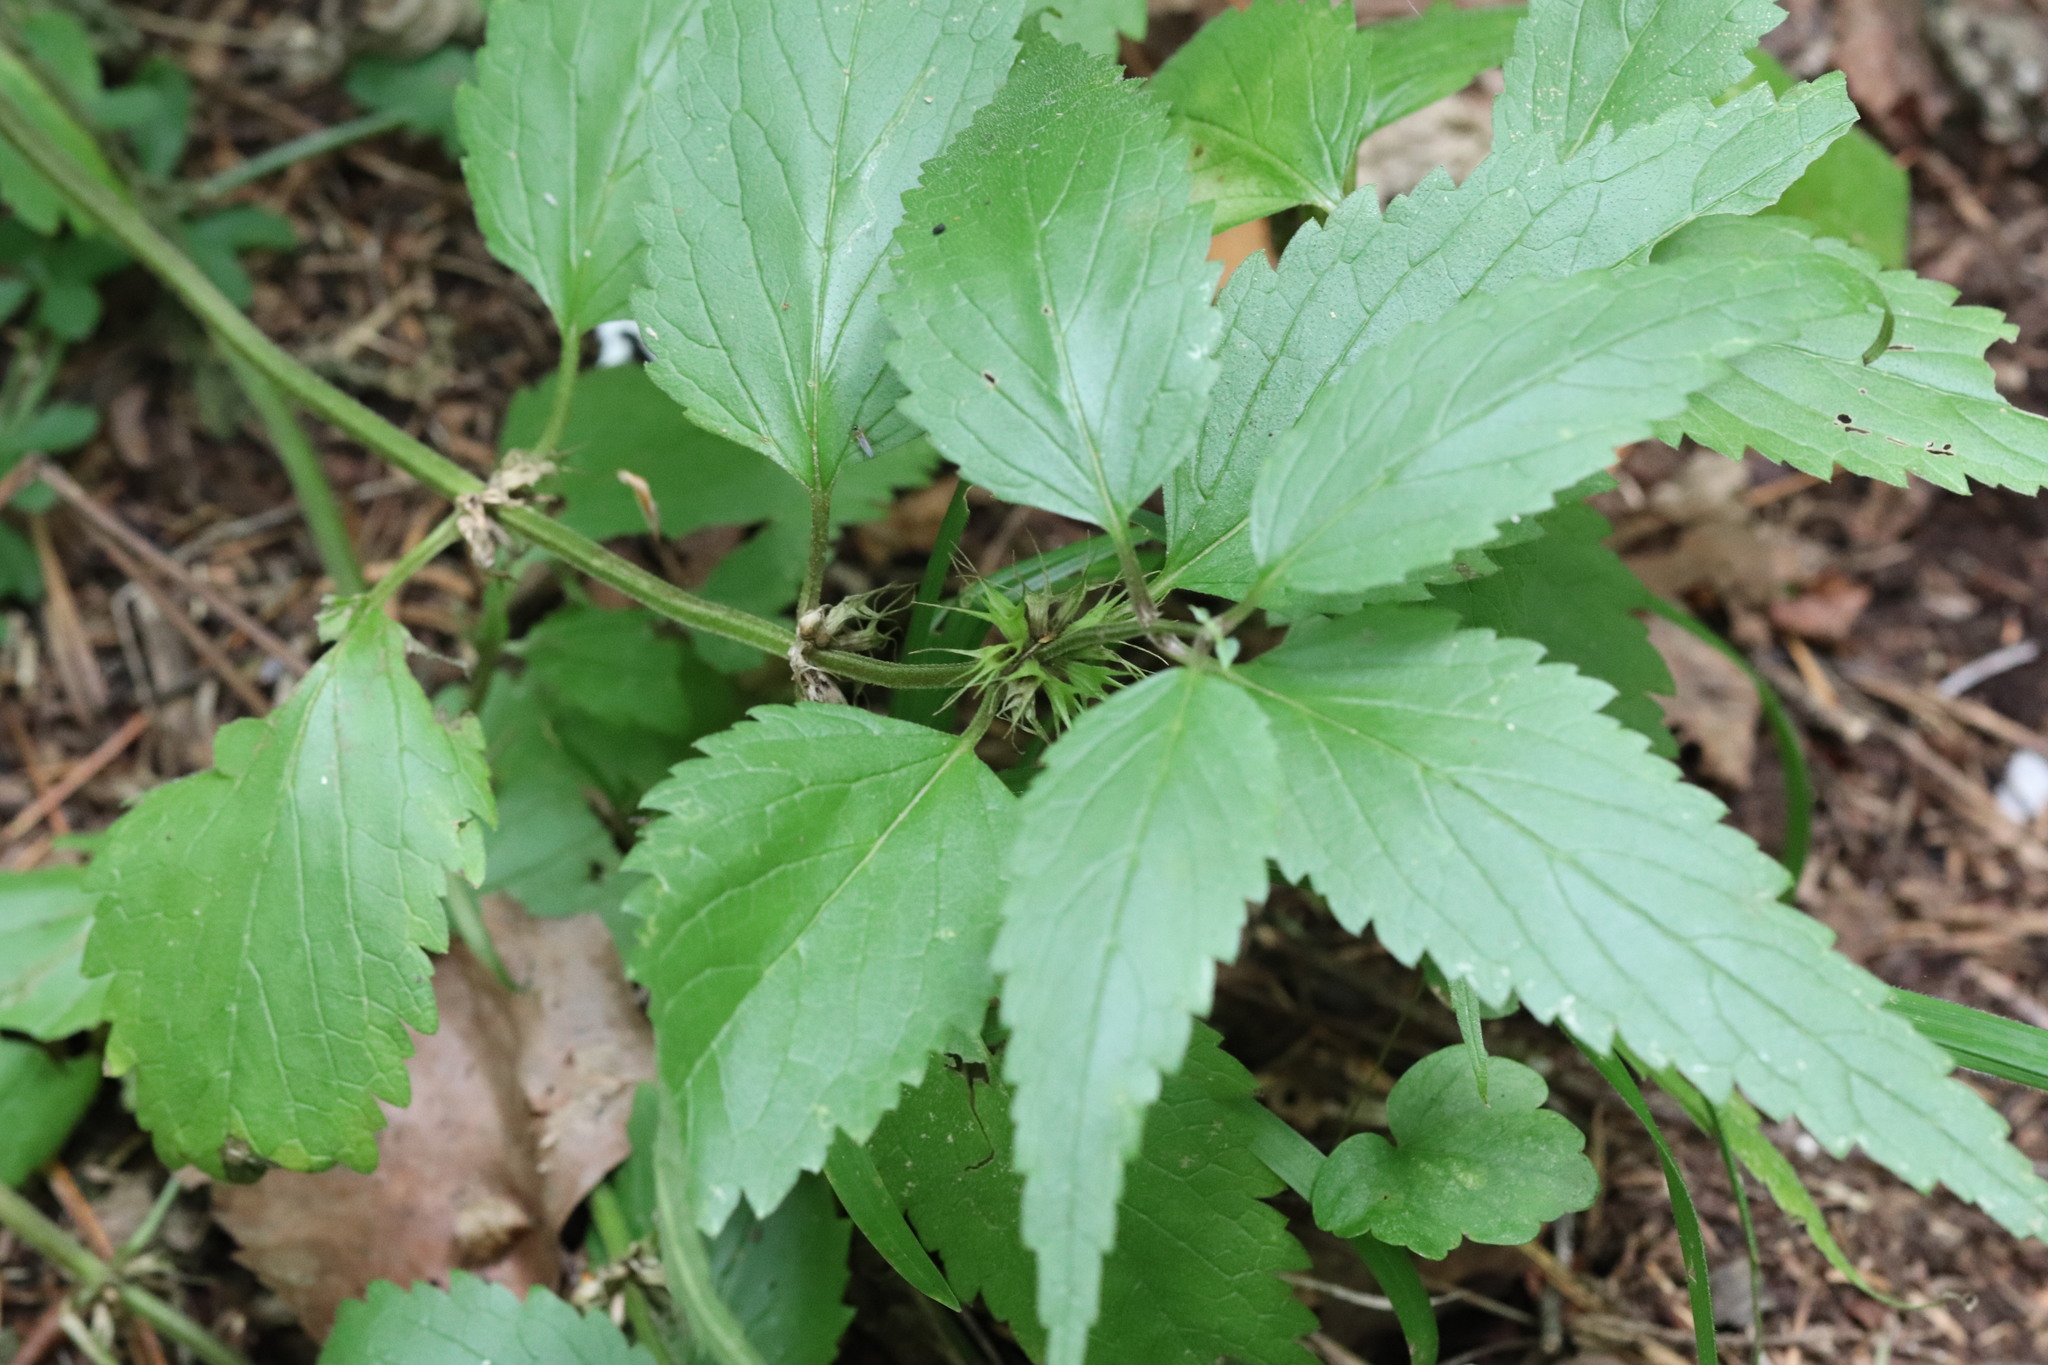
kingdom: Plantae
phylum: Tracheophyta
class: Magnoliopsida
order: Lamiales
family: Lamiaceae
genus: Lamium
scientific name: Lamium album
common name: White dead-nettle
